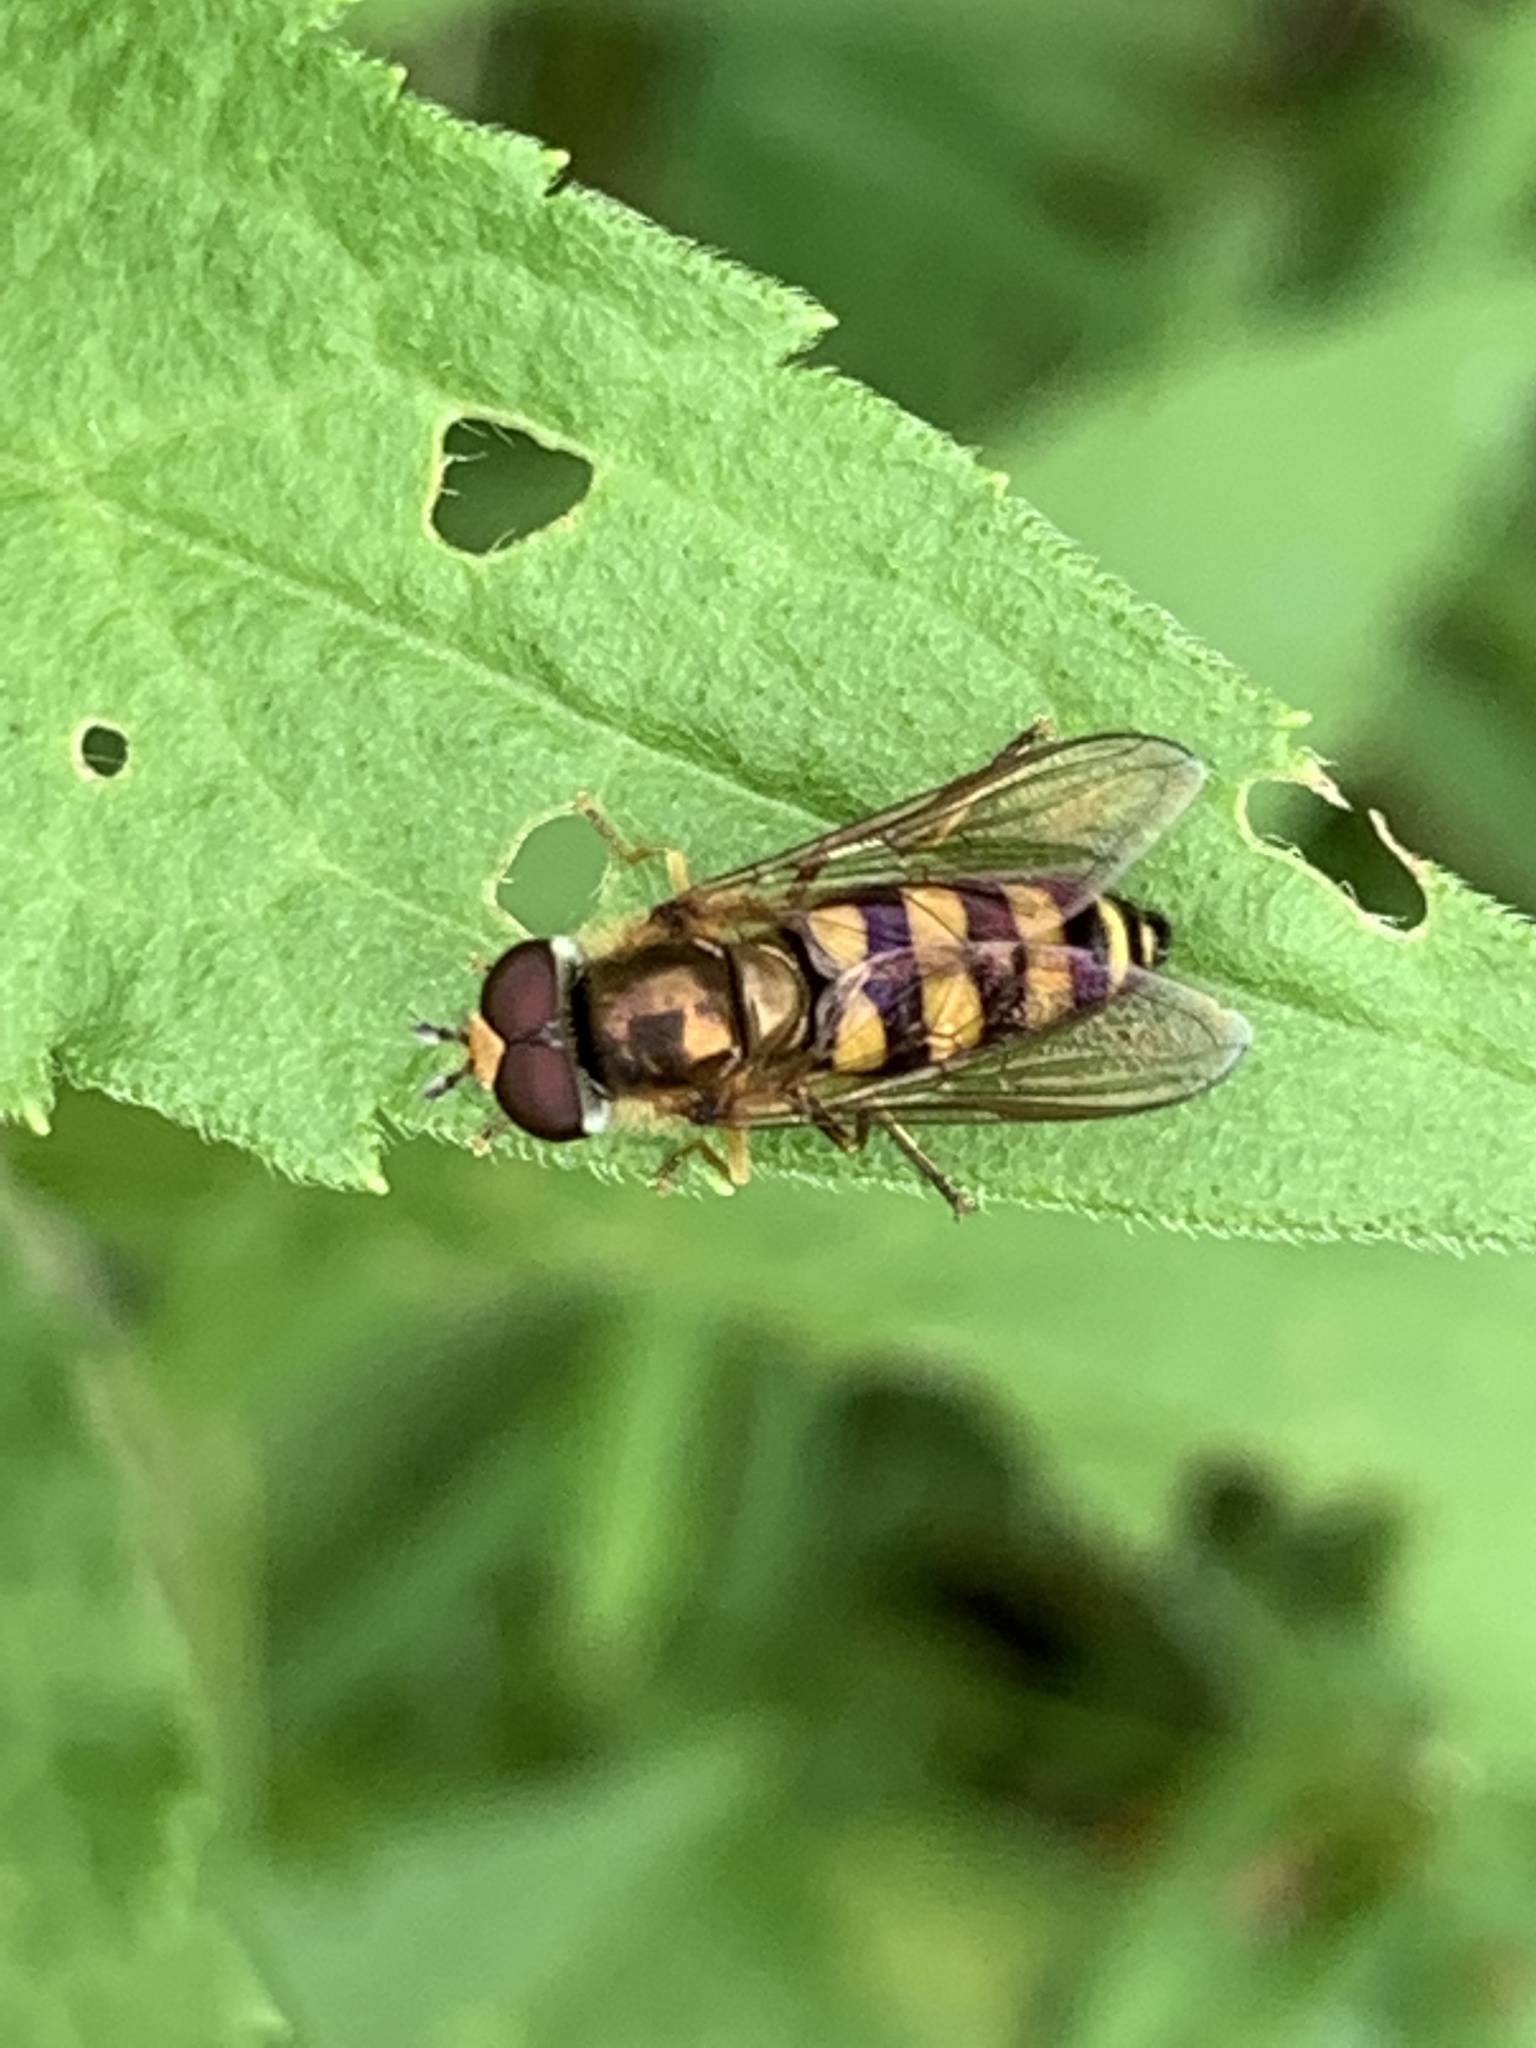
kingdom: Animalia
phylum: Arthropoda
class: Insecta
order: Diptera
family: Syrphidae
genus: Eupeodes
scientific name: Eupeodes
